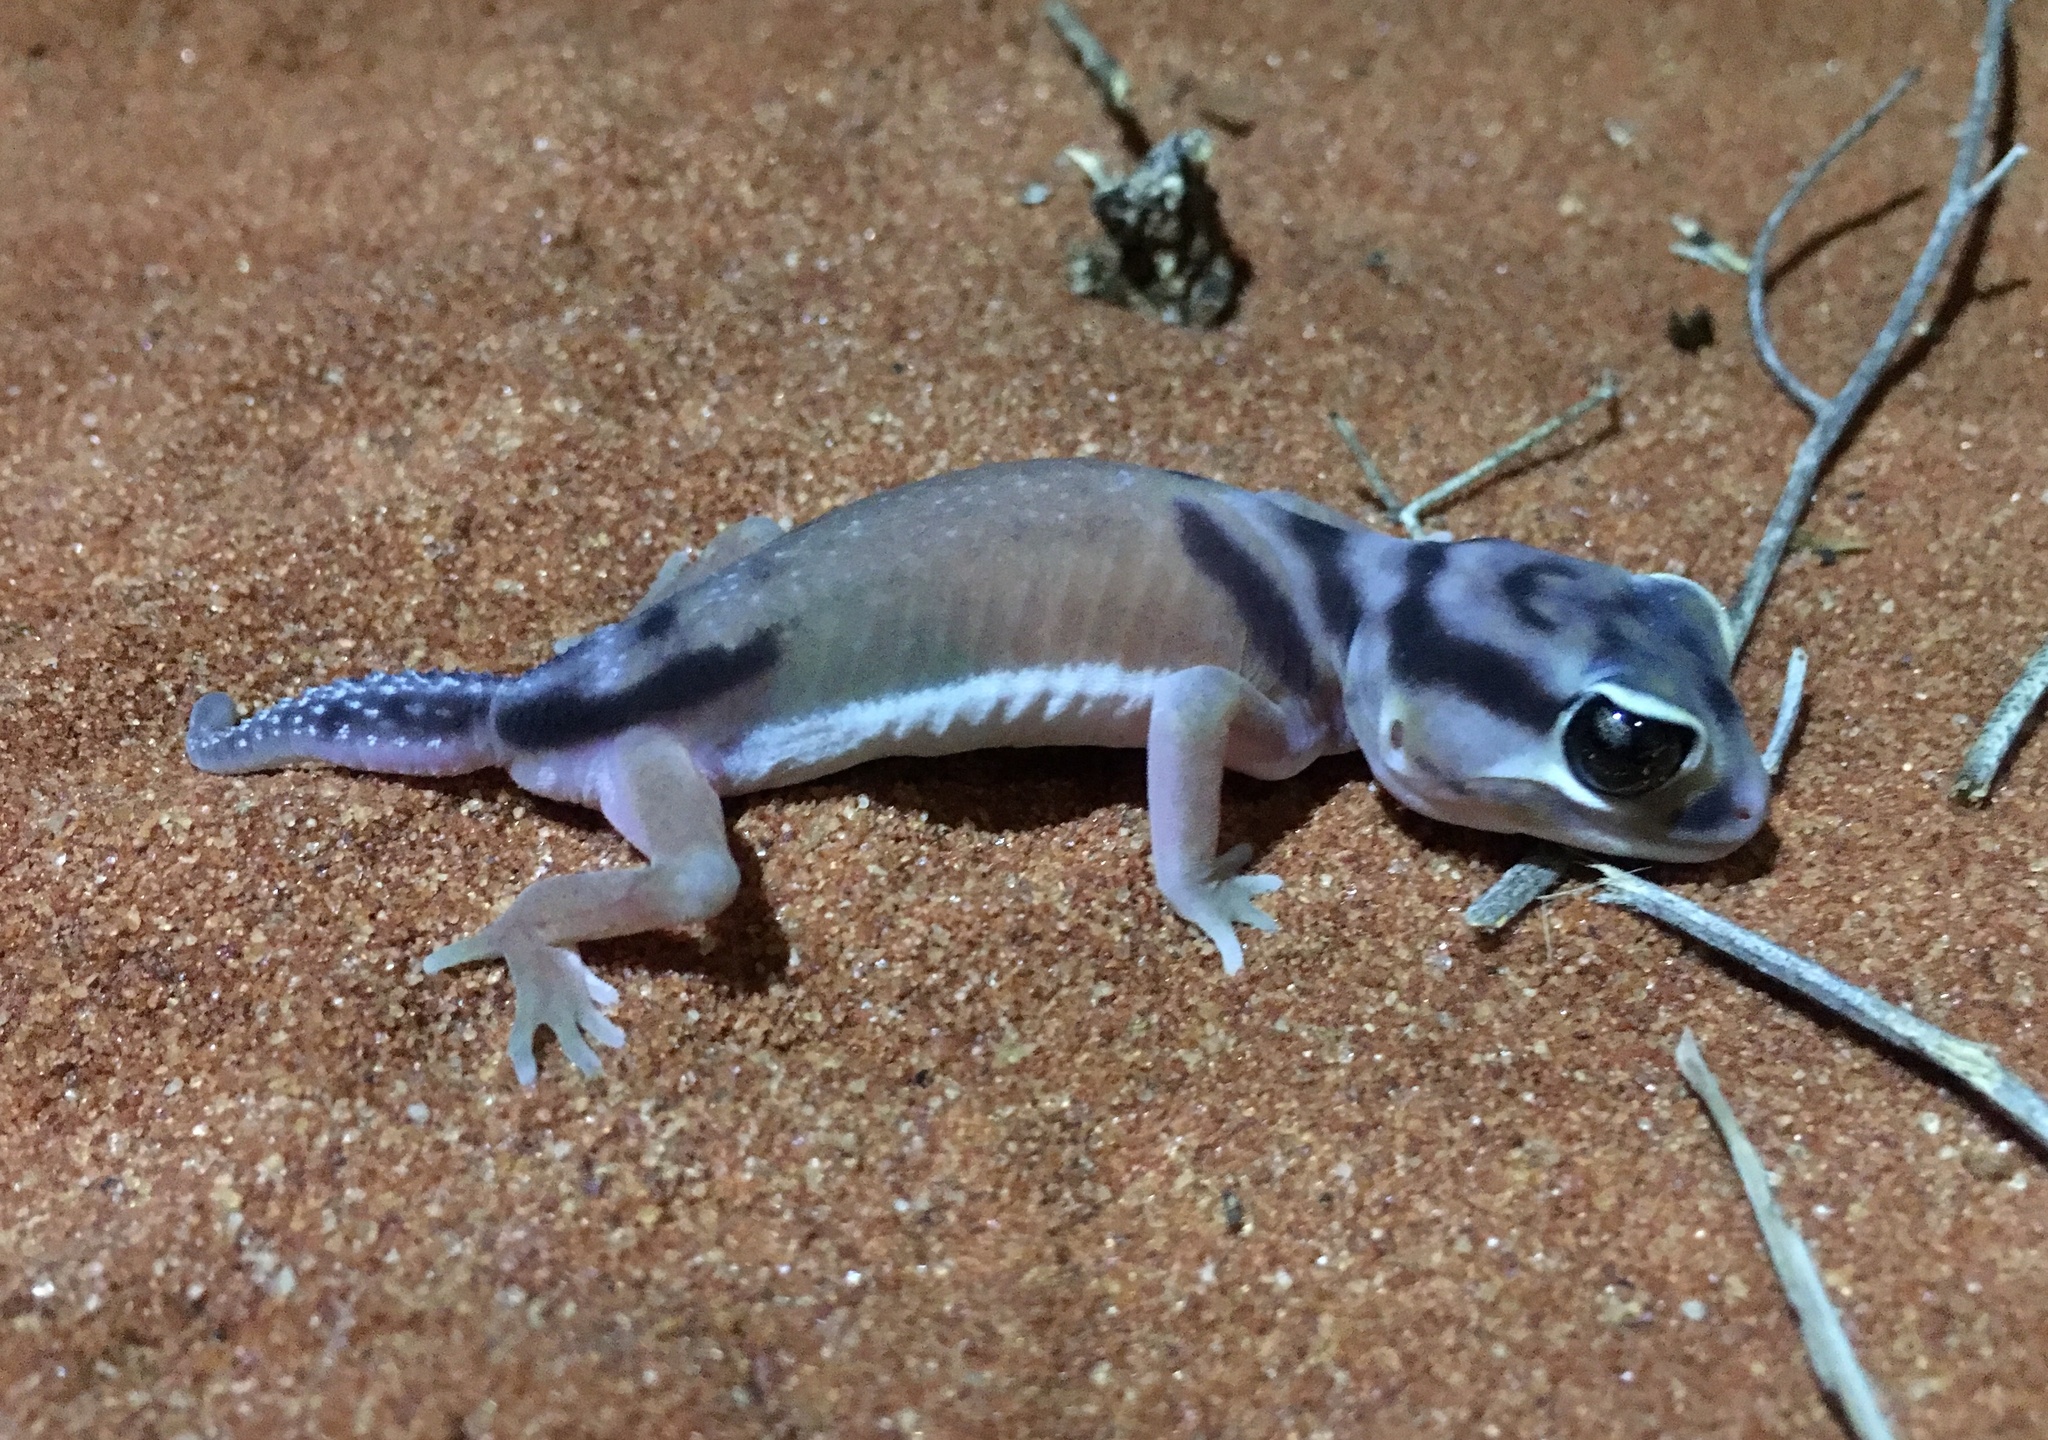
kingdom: Animalia
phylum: Chordata
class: Squamata
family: Carphodactylidae
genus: Nephrurus
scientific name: Nephrurus laevissimus
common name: Smooth knob-tail
